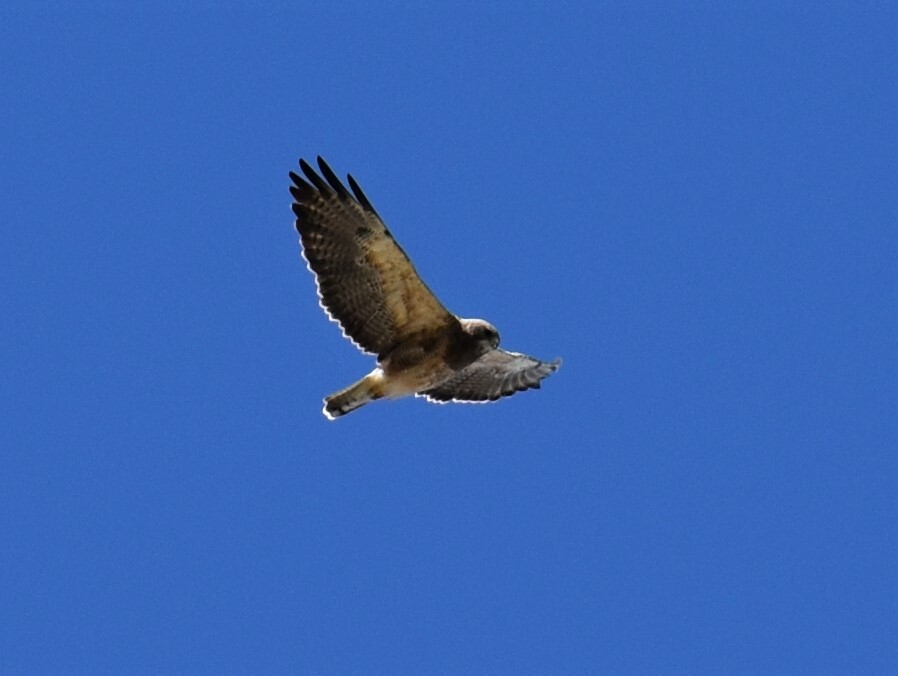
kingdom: Animalia
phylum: Chordata
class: Aves
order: Accipitriformes
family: Accipitridae
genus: Buteo
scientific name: Buteo swainsoni
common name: Swainson's hawk
